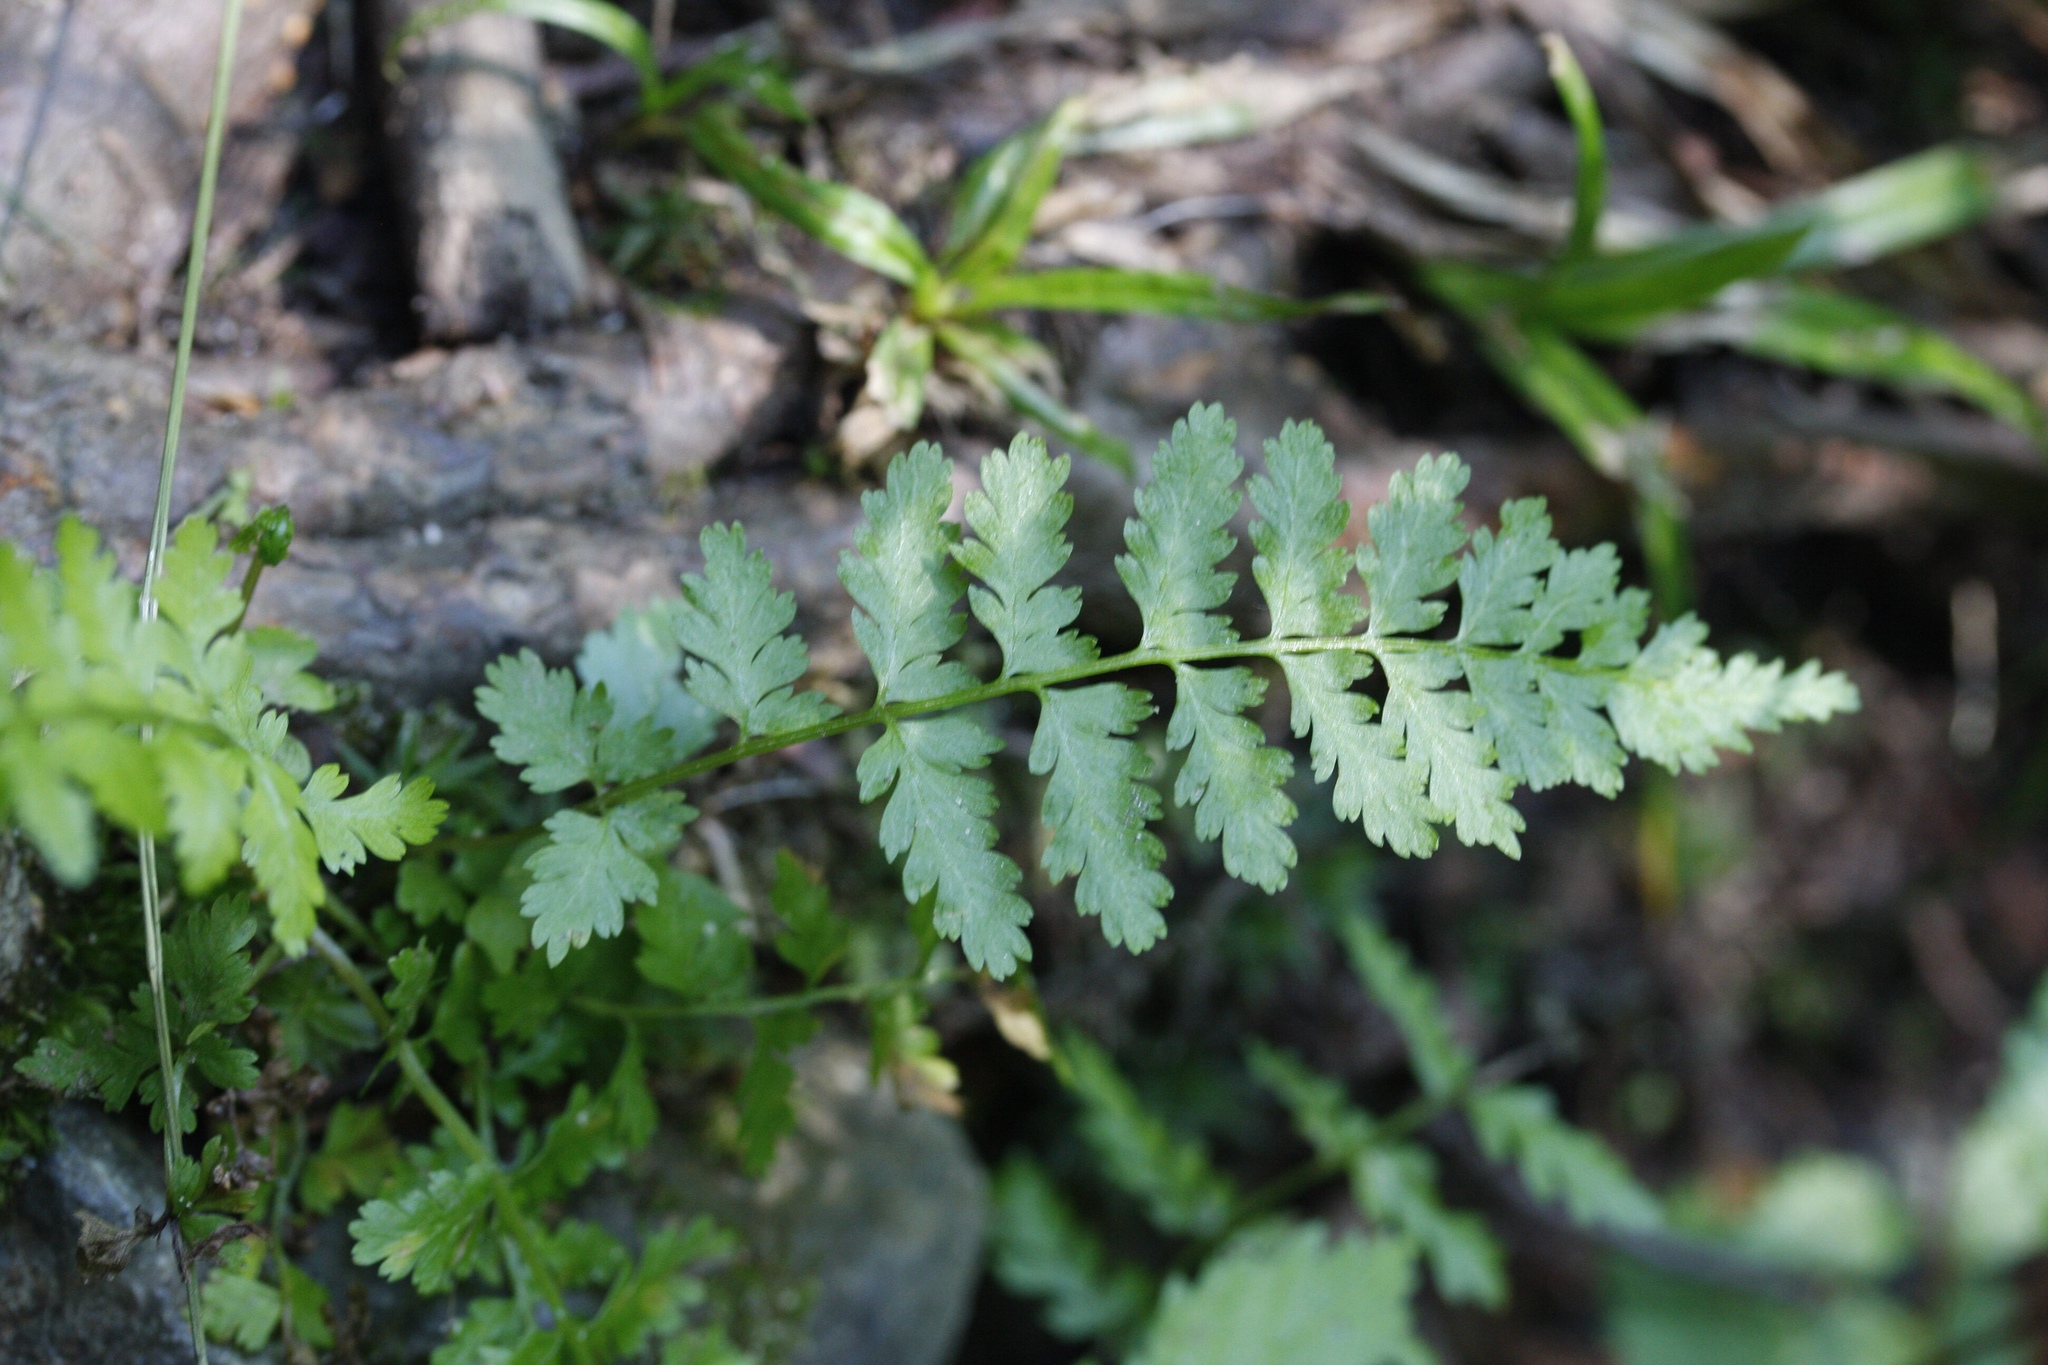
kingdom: Plantae
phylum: Tracheophyta
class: Polypodiopsida
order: Polypodiales
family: Cystopteridaceae
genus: Cystopteris
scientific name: Cystopteris fragilis
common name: Brittle bladder fern
